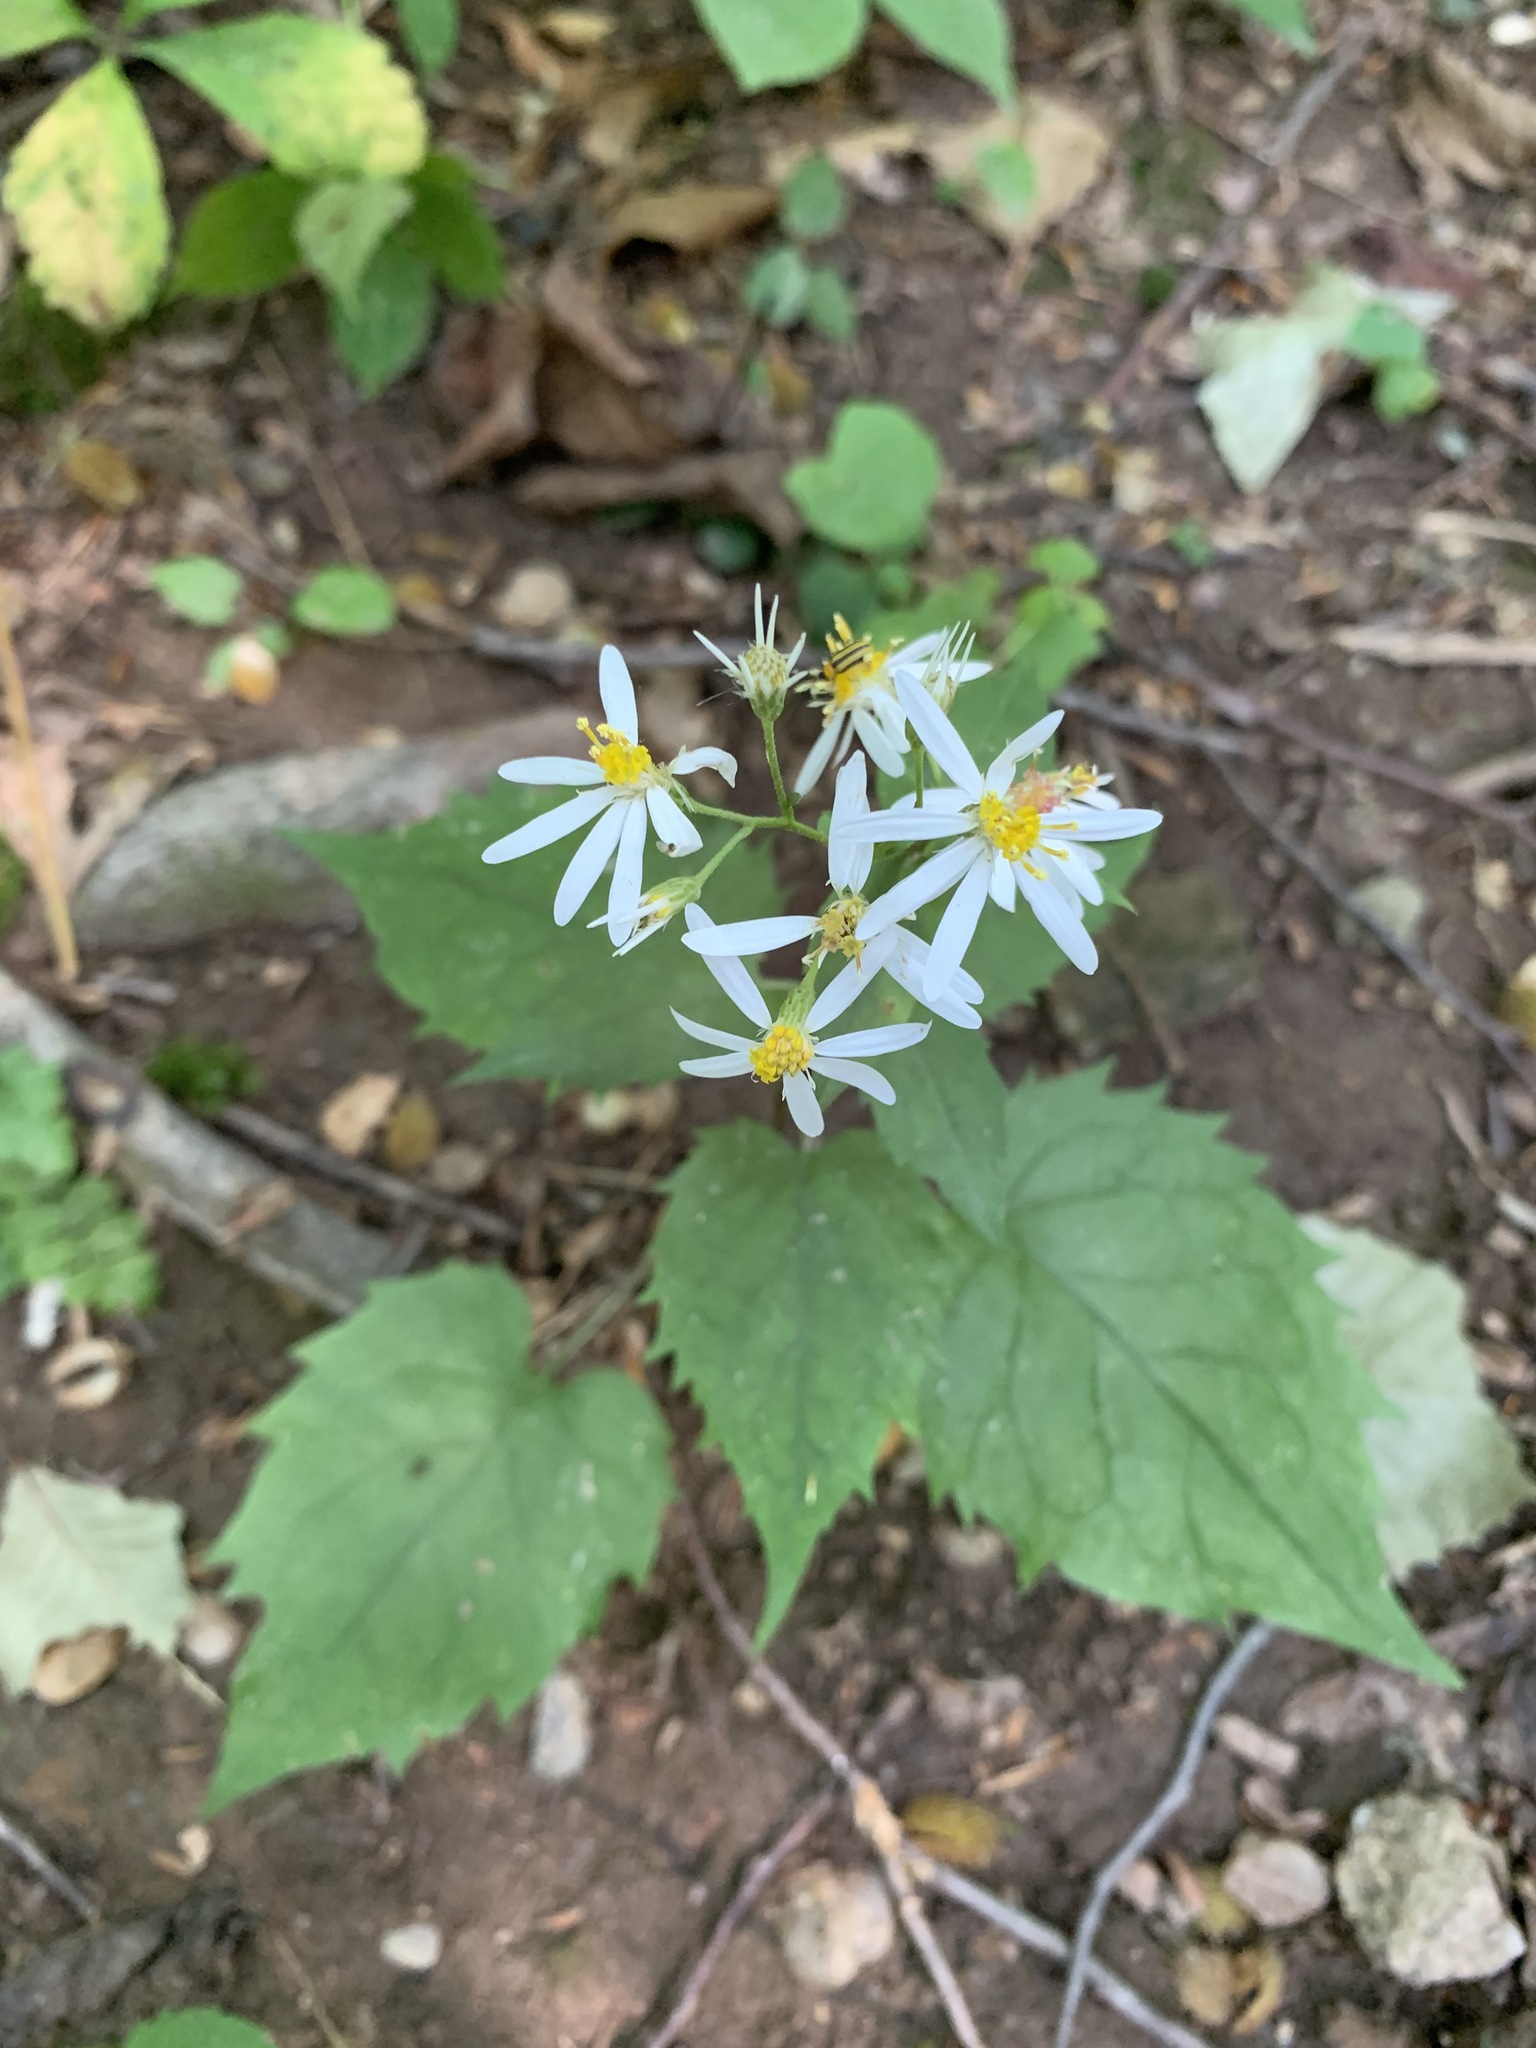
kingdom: Plantae
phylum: Tracheophyta
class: Magnoliopsida
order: Asterales
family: Asteraceae
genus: Eurybia
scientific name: Eurybia divaricata
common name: White wood aster
